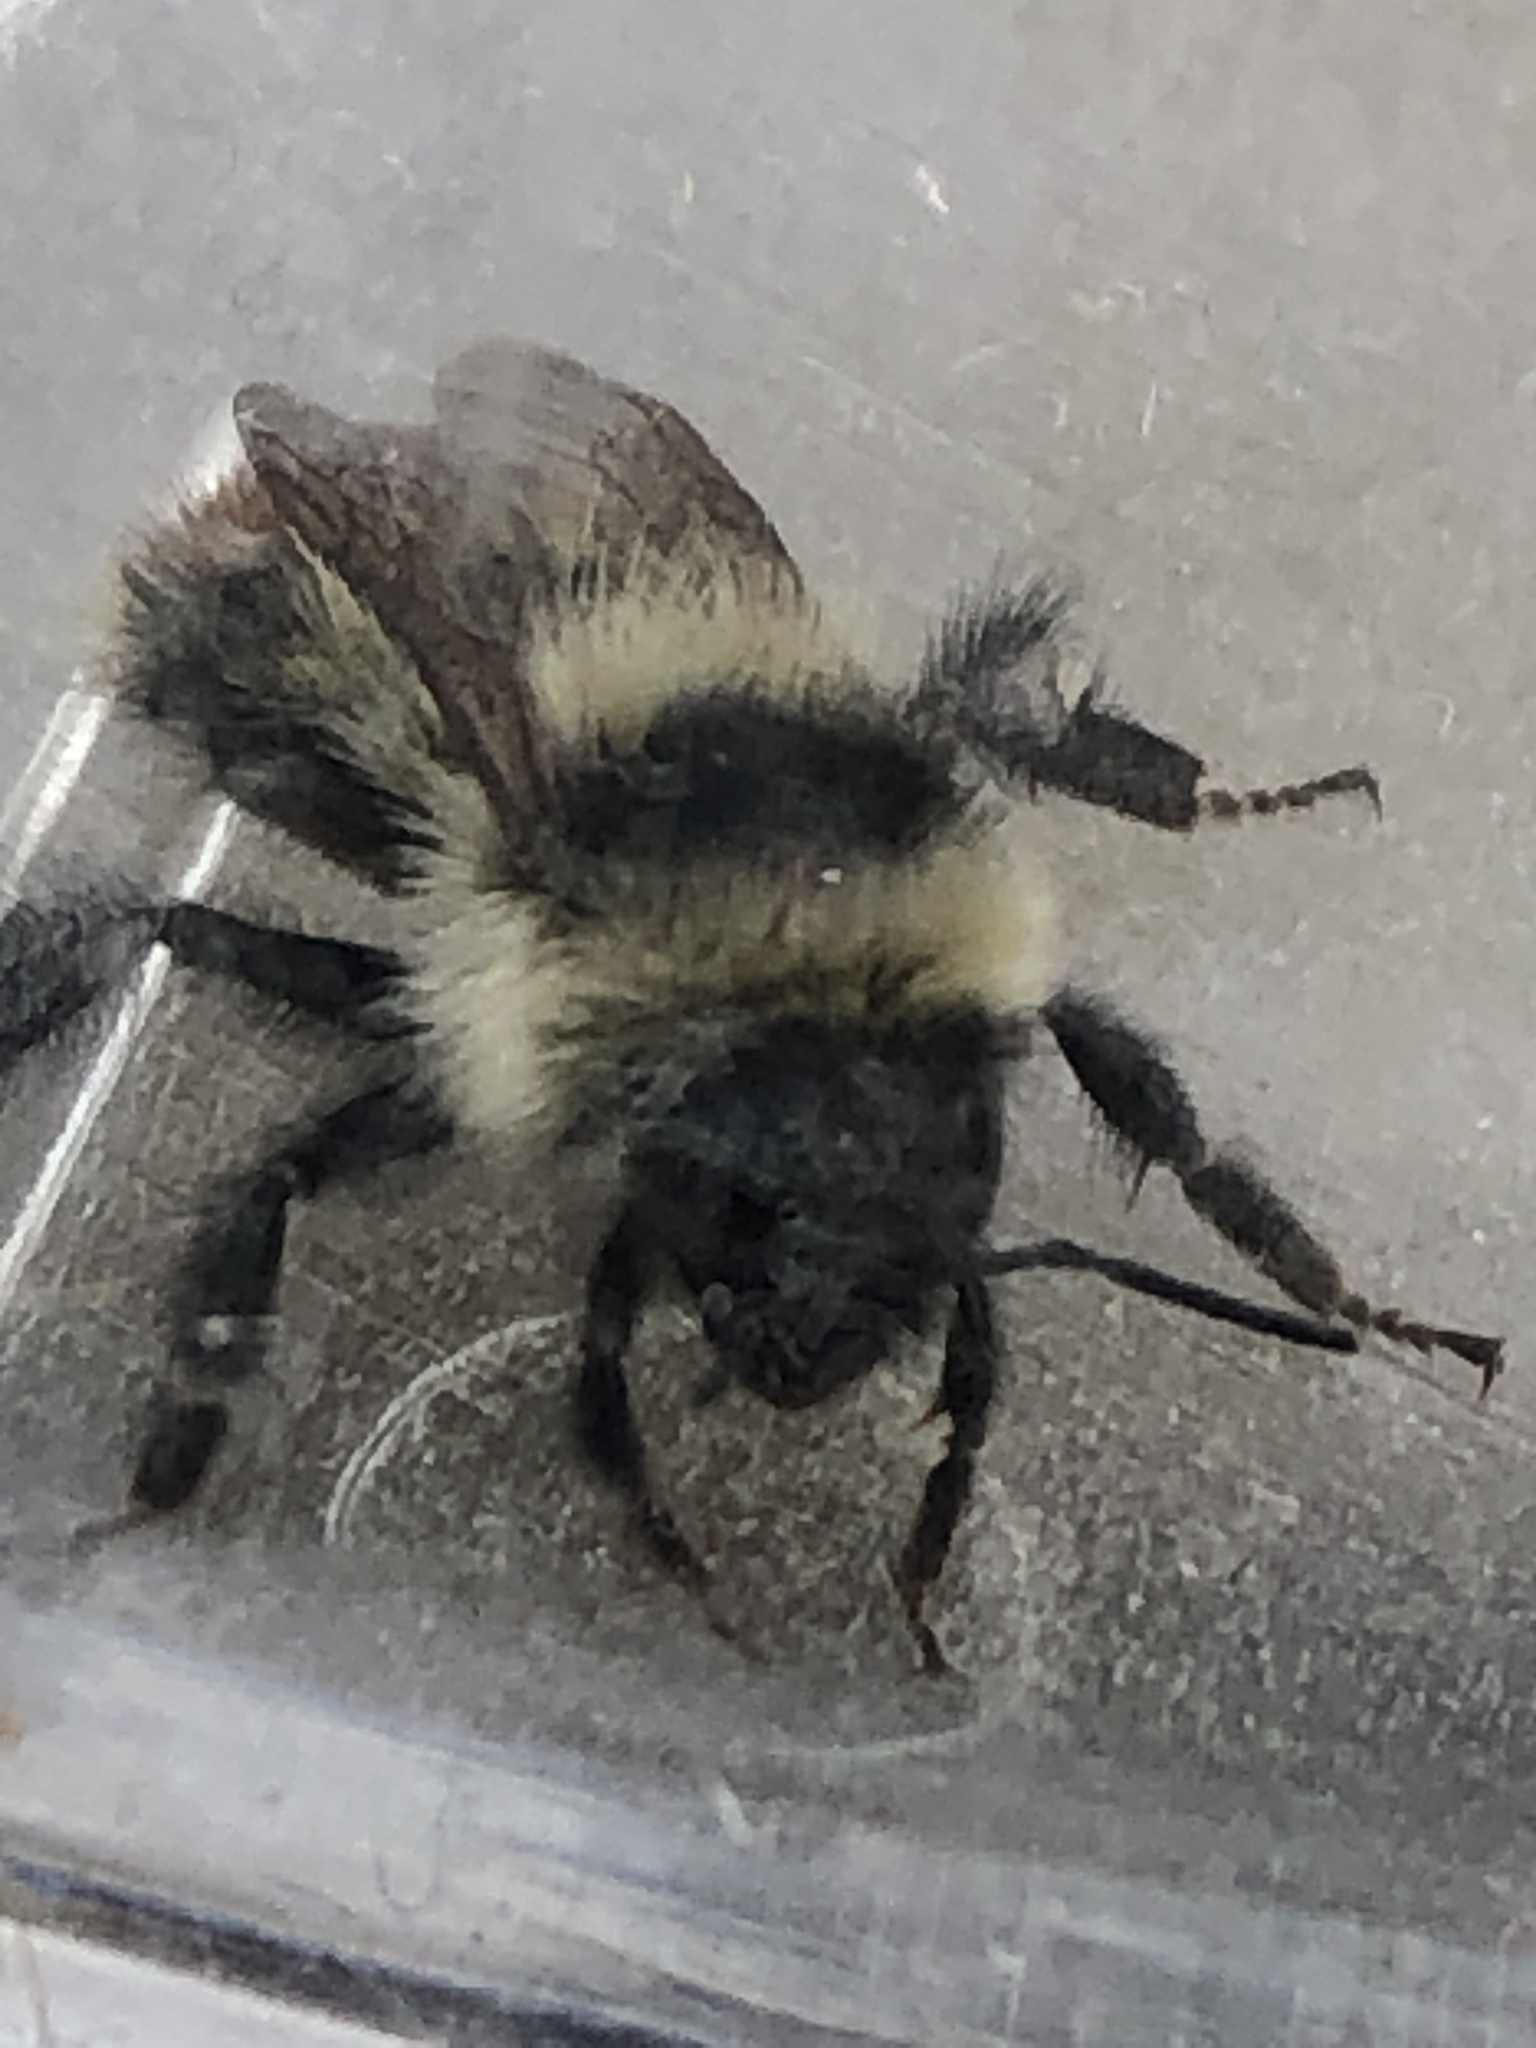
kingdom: Animalia
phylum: Arthropoda
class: Insecta
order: Hymenoptera
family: Apidae
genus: Bombus
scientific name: Bombus rufocinctus
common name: Red-belted bumble bee
